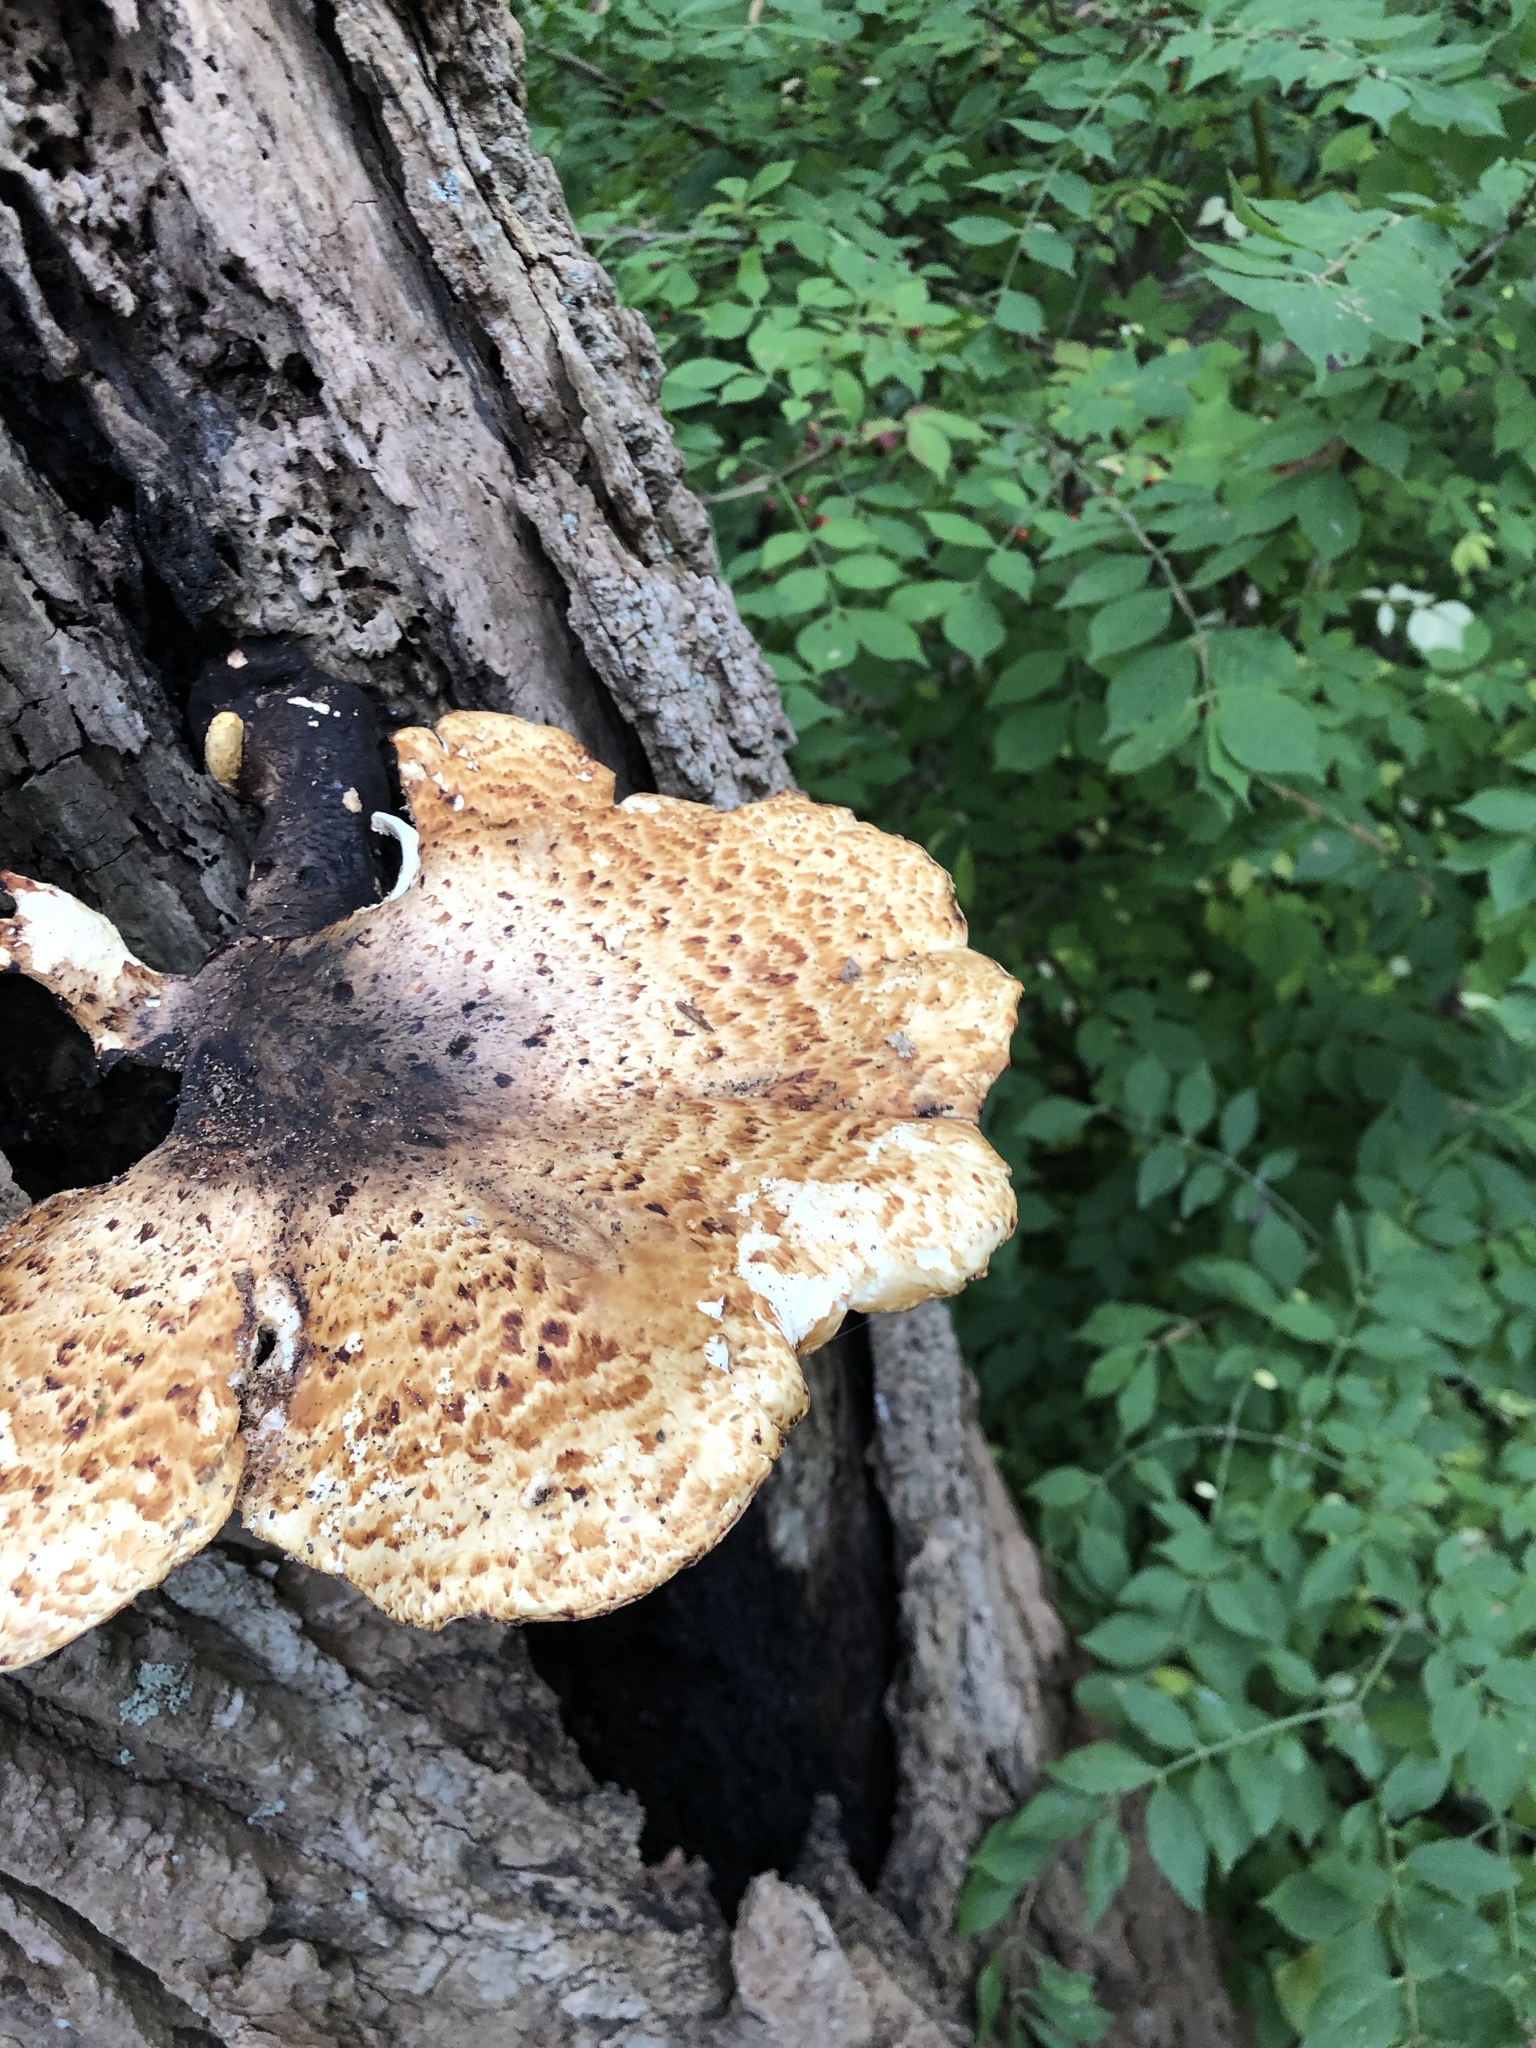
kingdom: Fungi
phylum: Basidiomycota
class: Agaricomycetes
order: Polyporales
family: Polyporaceae
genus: Cerioporus
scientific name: Cerioporus squamosus
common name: Dryad's saddle
